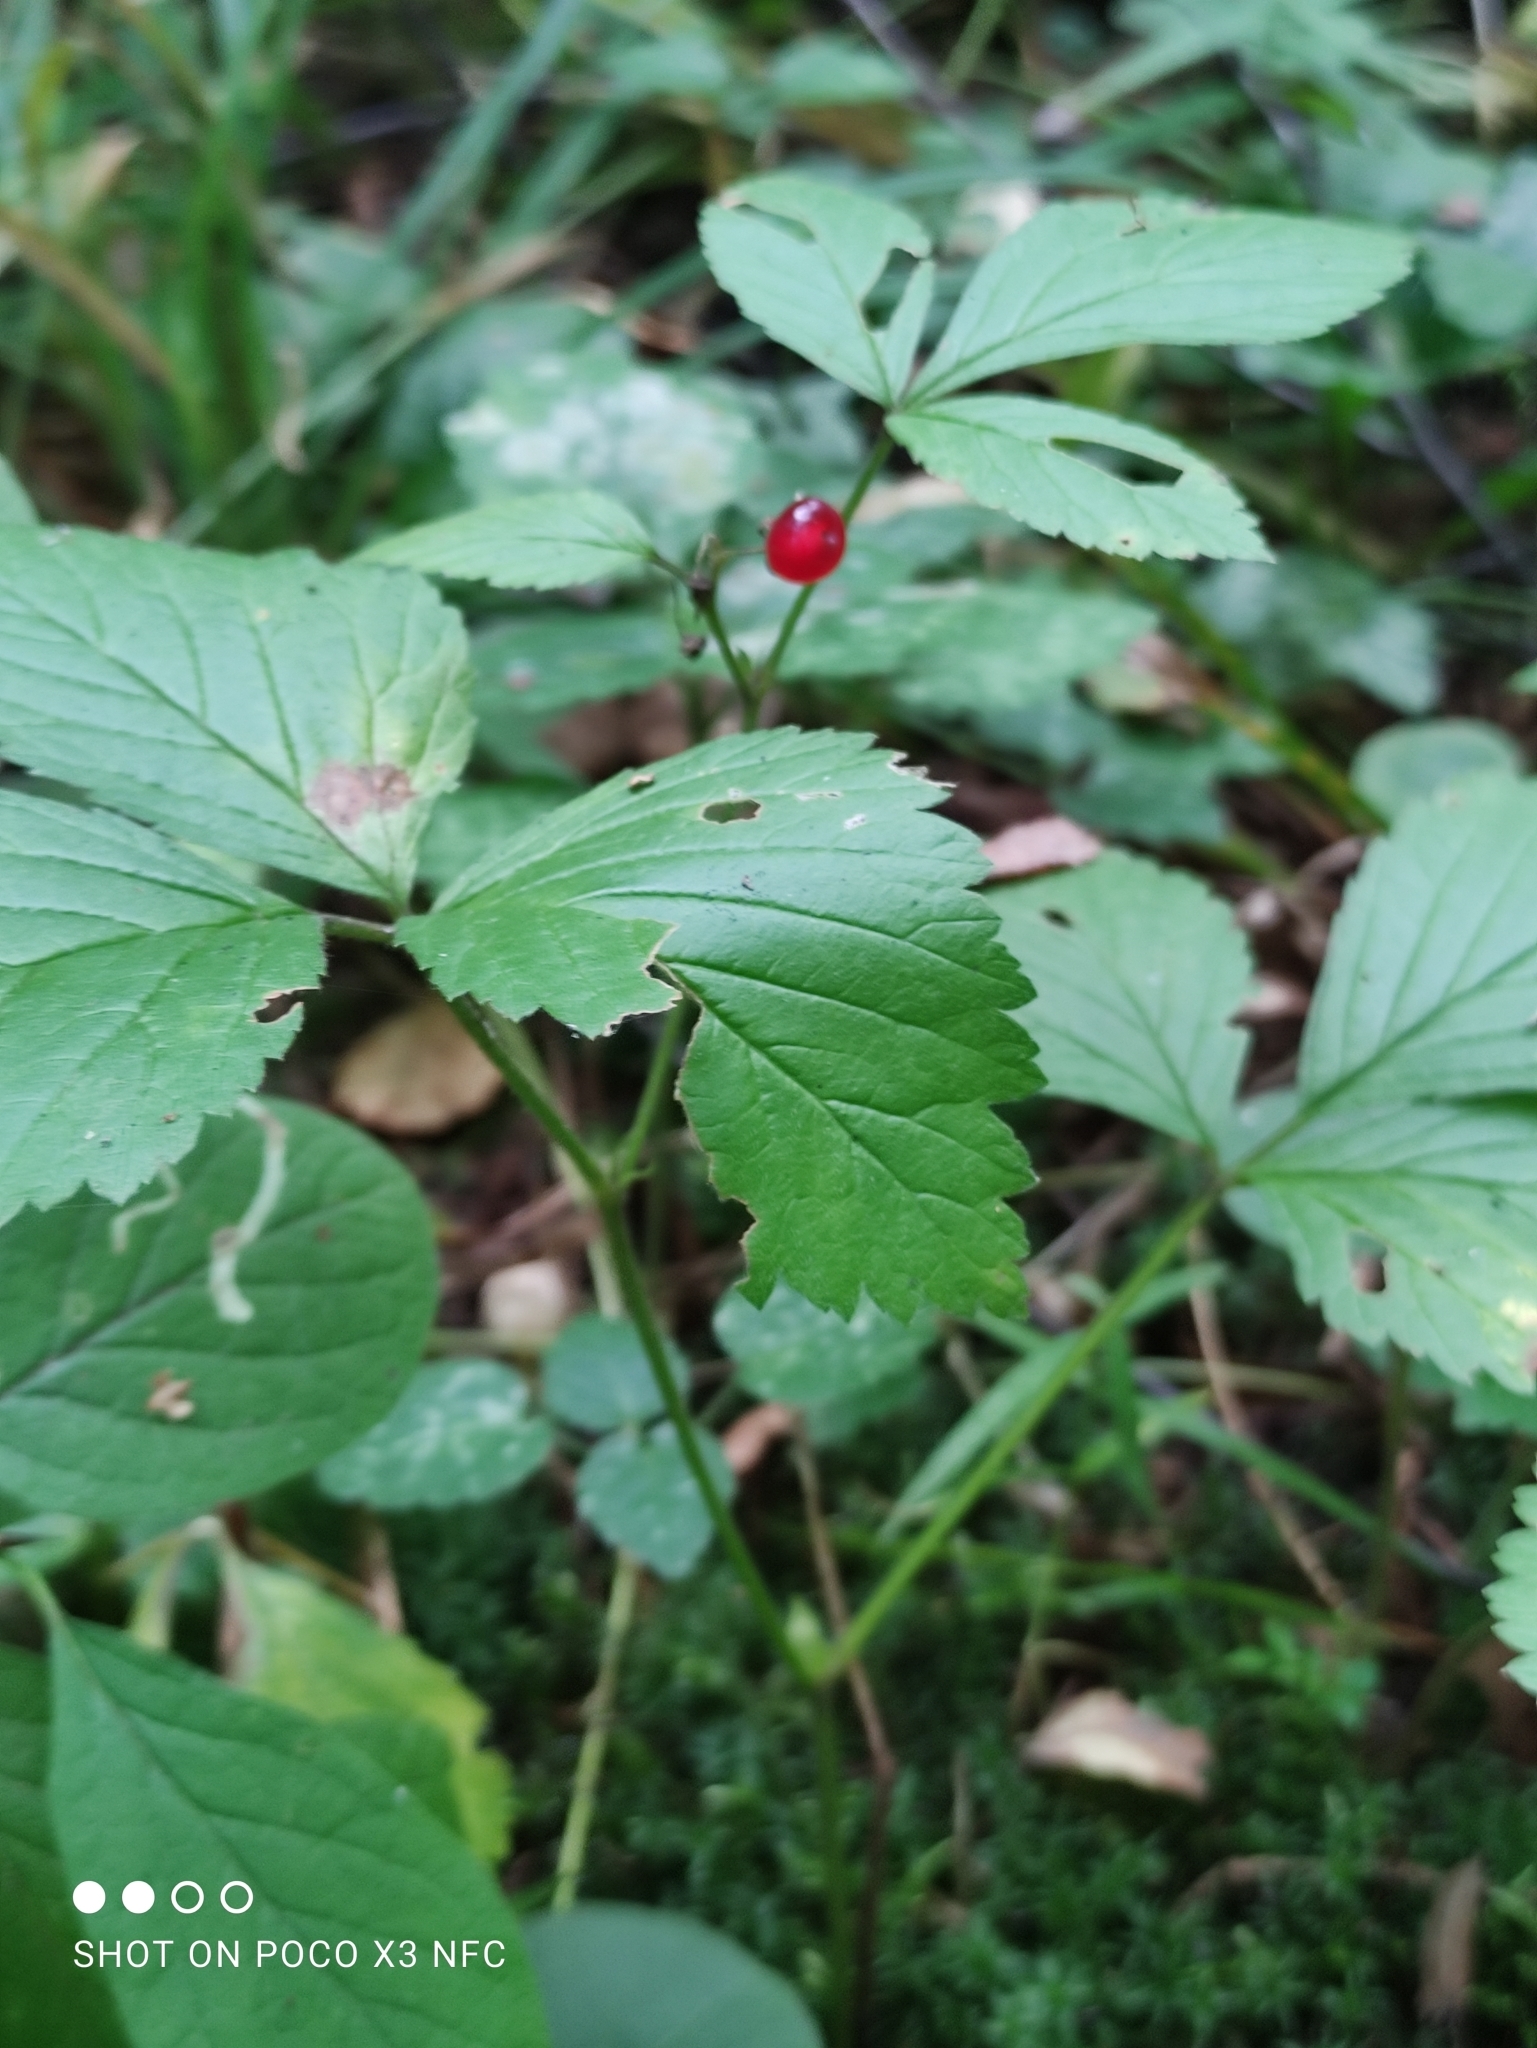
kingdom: Plantae
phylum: Tracheophyta
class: Magnoliopsida
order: Rosales
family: Rosaceae
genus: Rubus
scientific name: Rubus saxatilis
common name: Stone bramble
